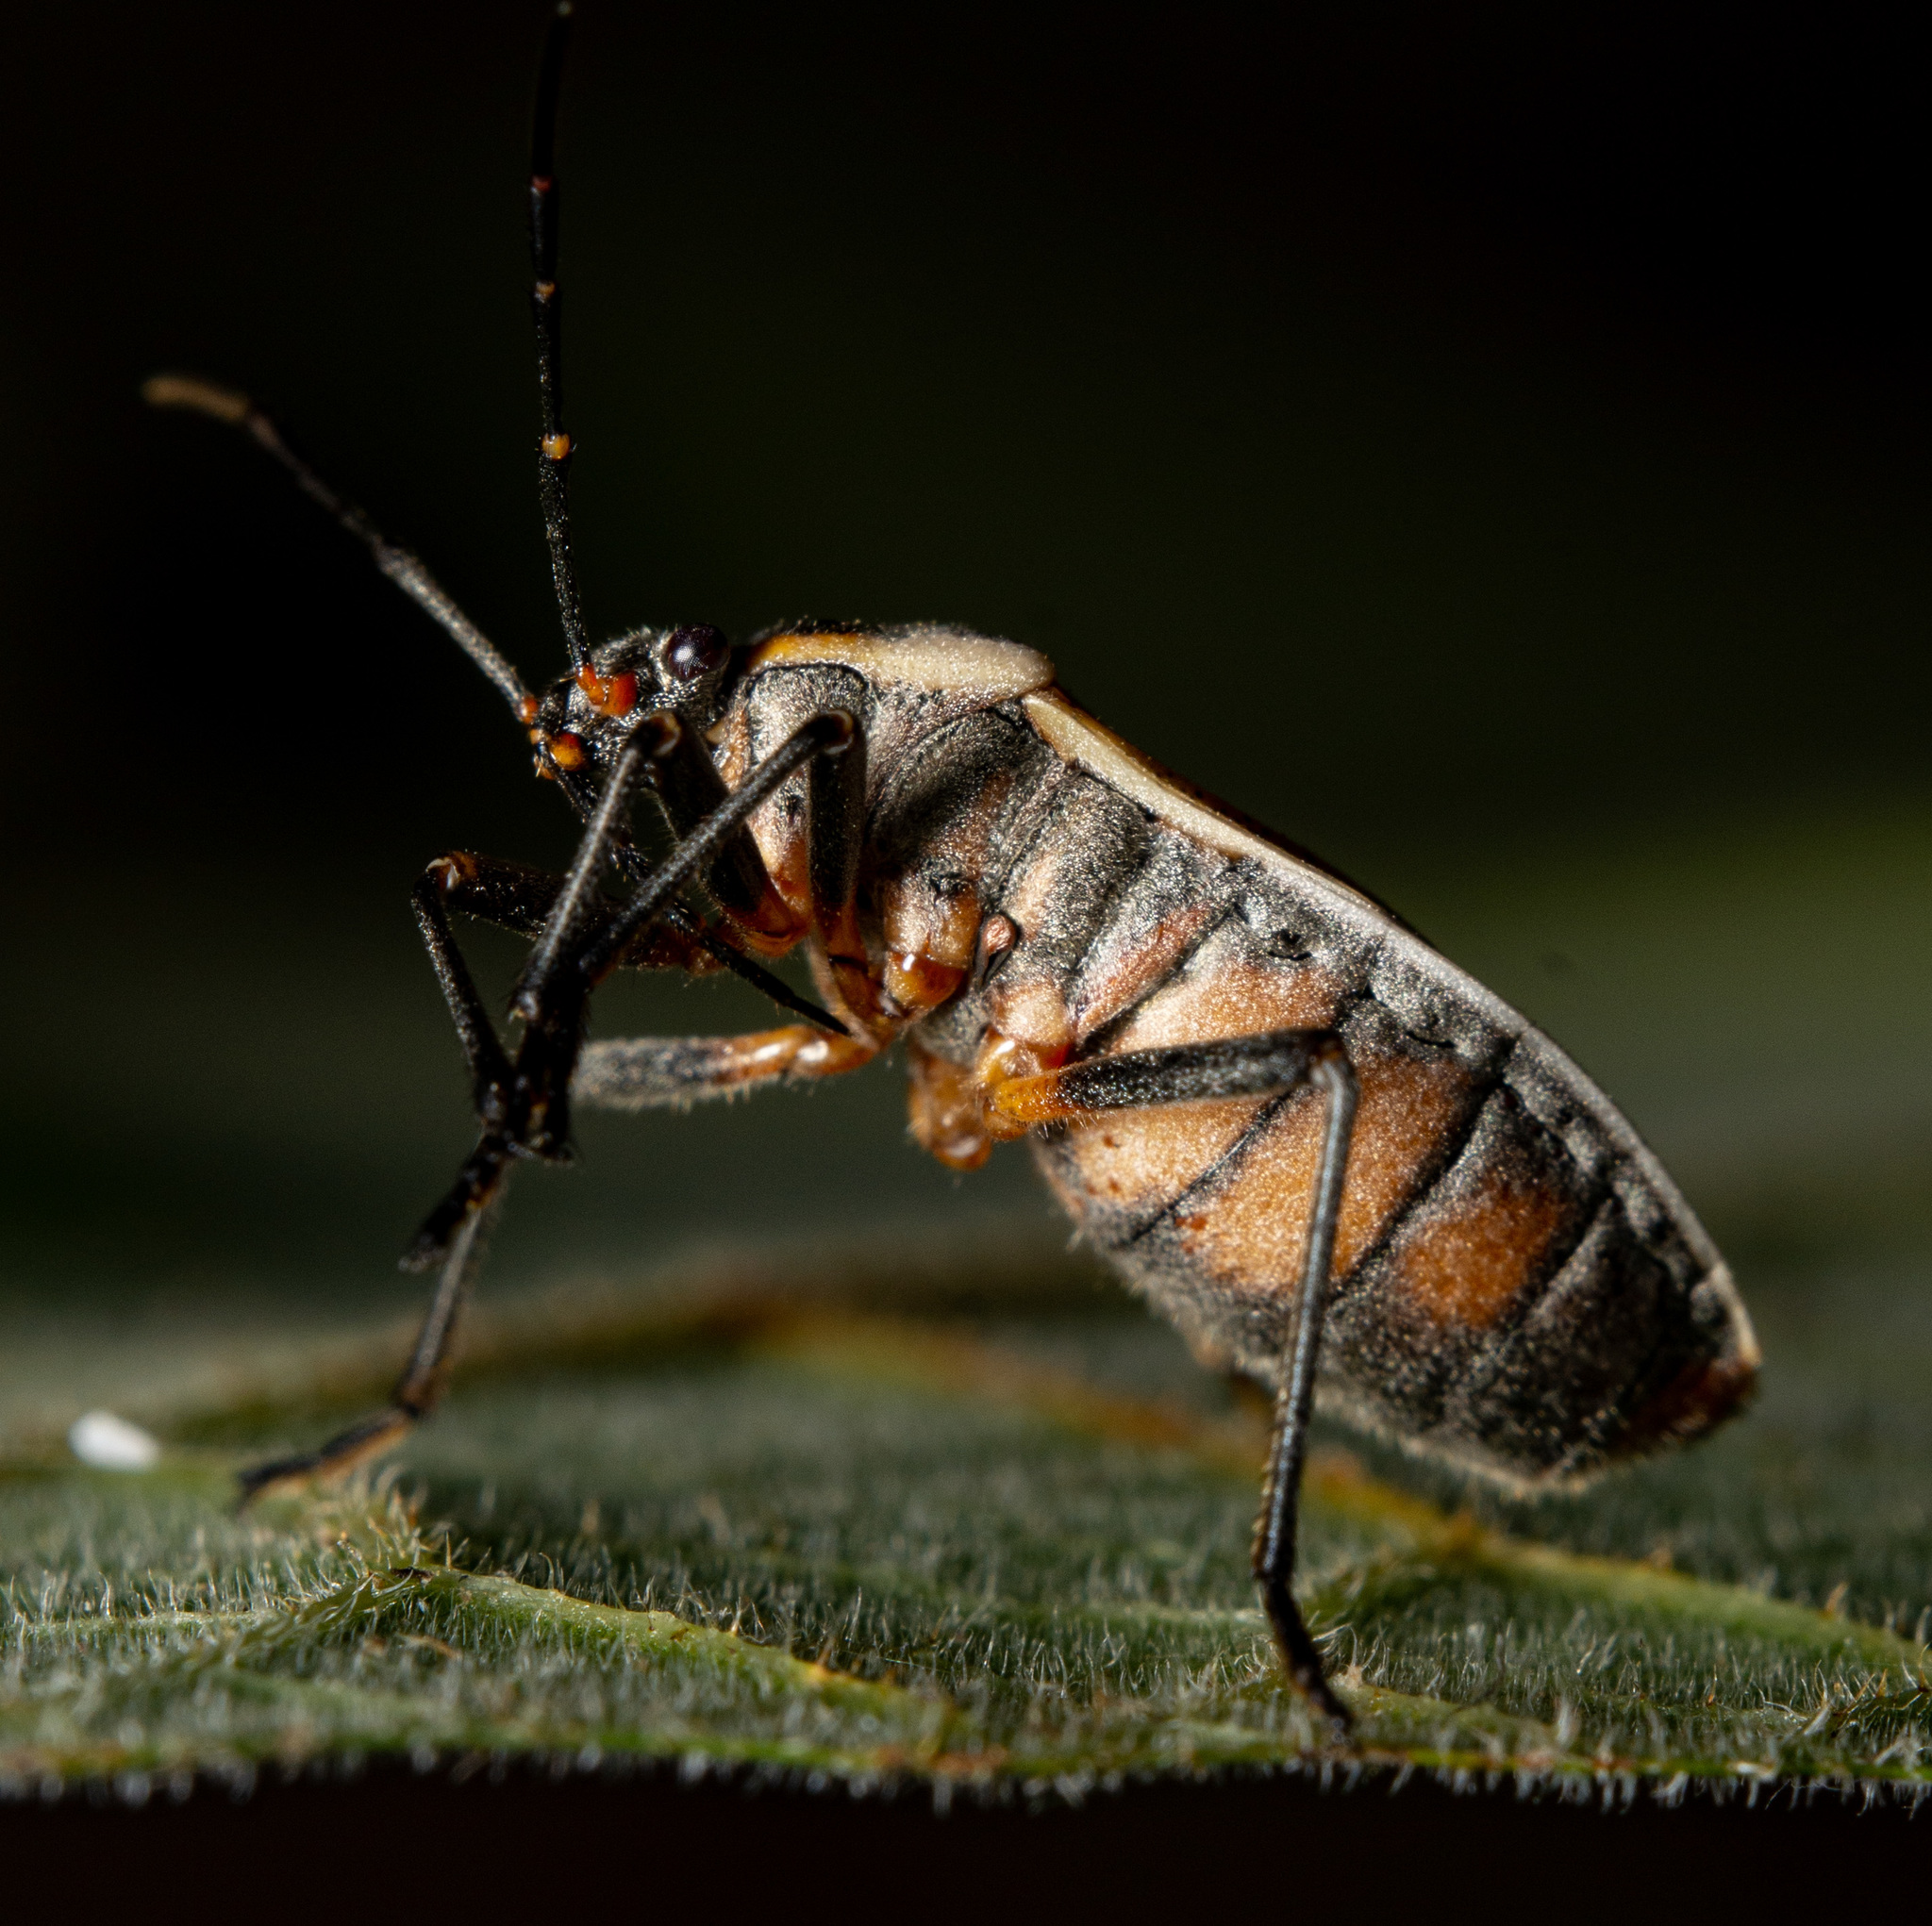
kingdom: Animalia
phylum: Arthropoda
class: Insecta
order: Hemiptera
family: Largidae
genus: Largus
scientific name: Largus maculatus
